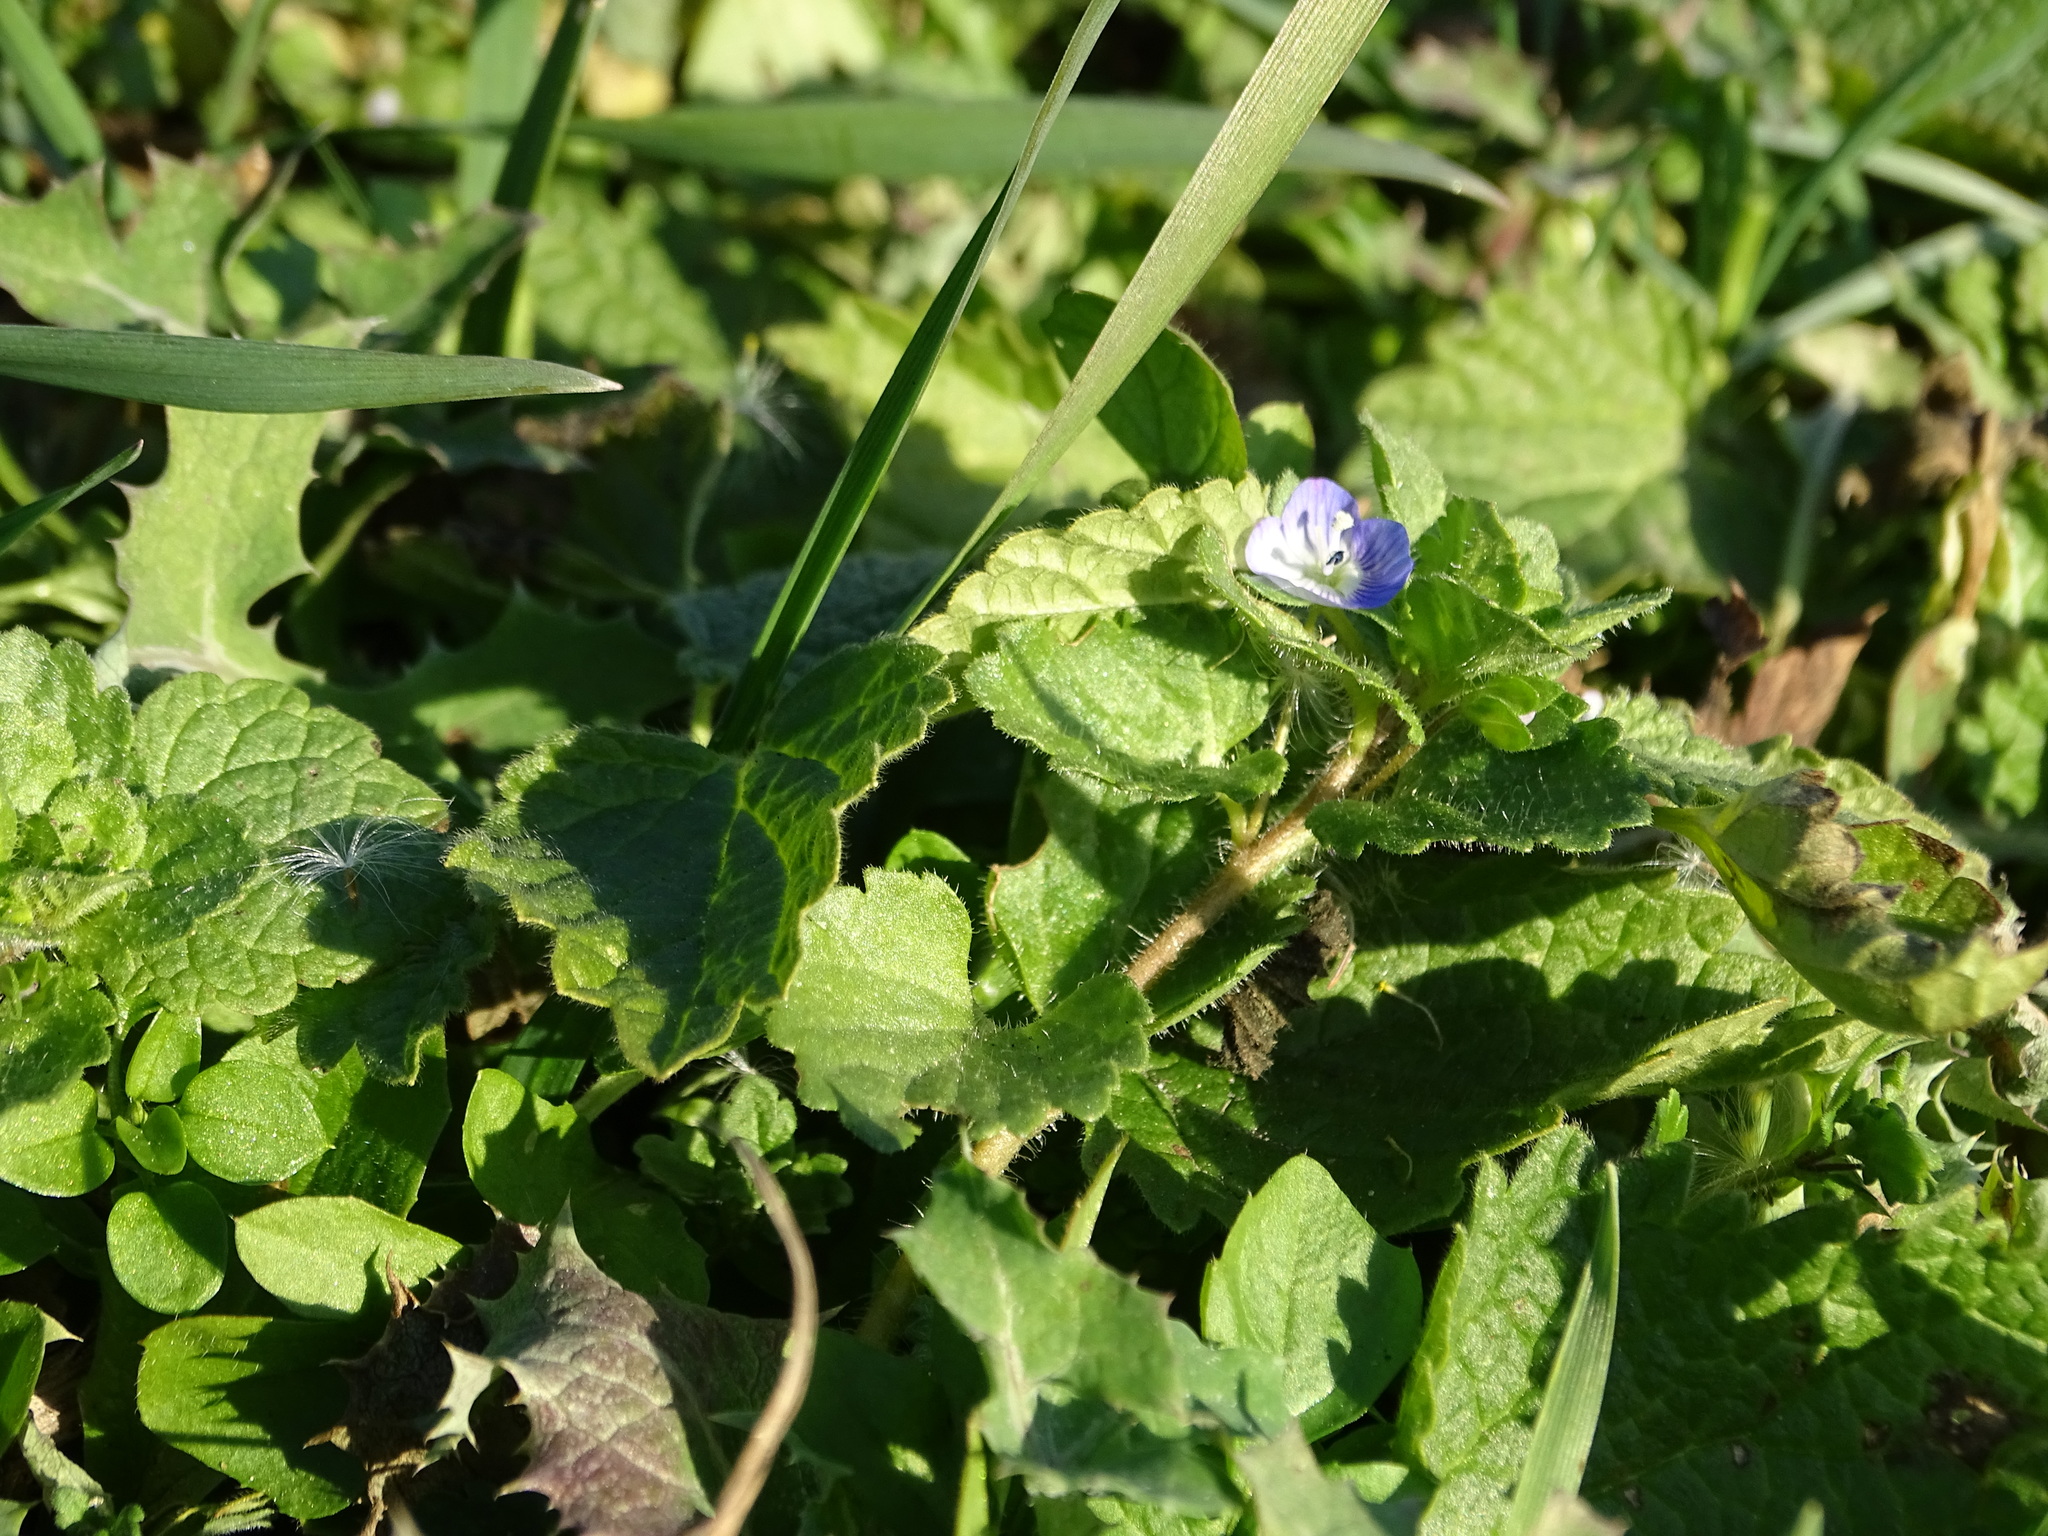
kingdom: Plantae
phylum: Tracheophyta
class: Magnoliopsida
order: Lamiales
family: Plantaginaceae
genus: Veronica
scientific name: Veronica persica
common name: Common field-speedwell
